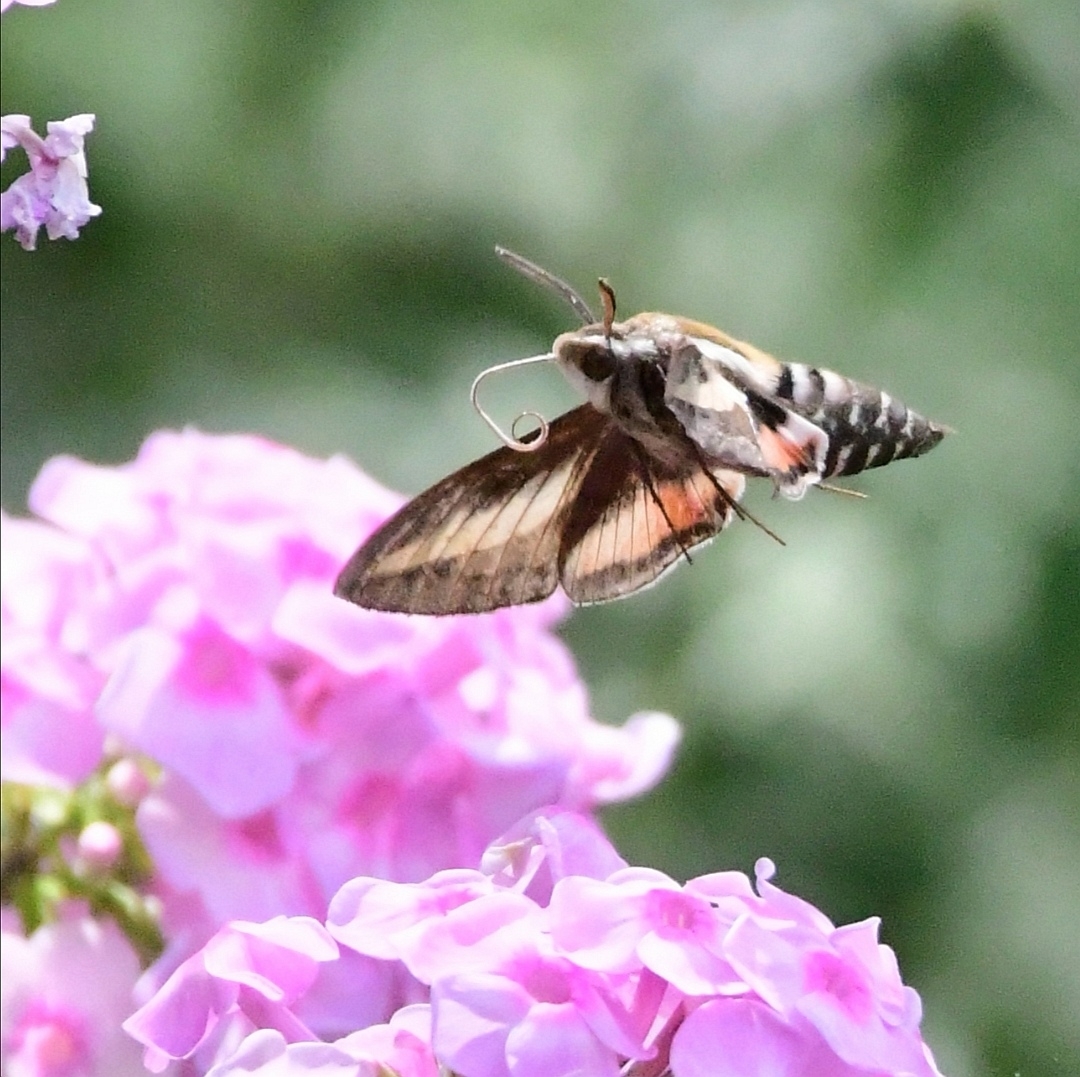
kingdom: Animalia
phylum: Arthropoda
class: Insecta
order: Lepidoptera
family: Sphingidae
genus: Hyles
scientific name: Hyles gallii
